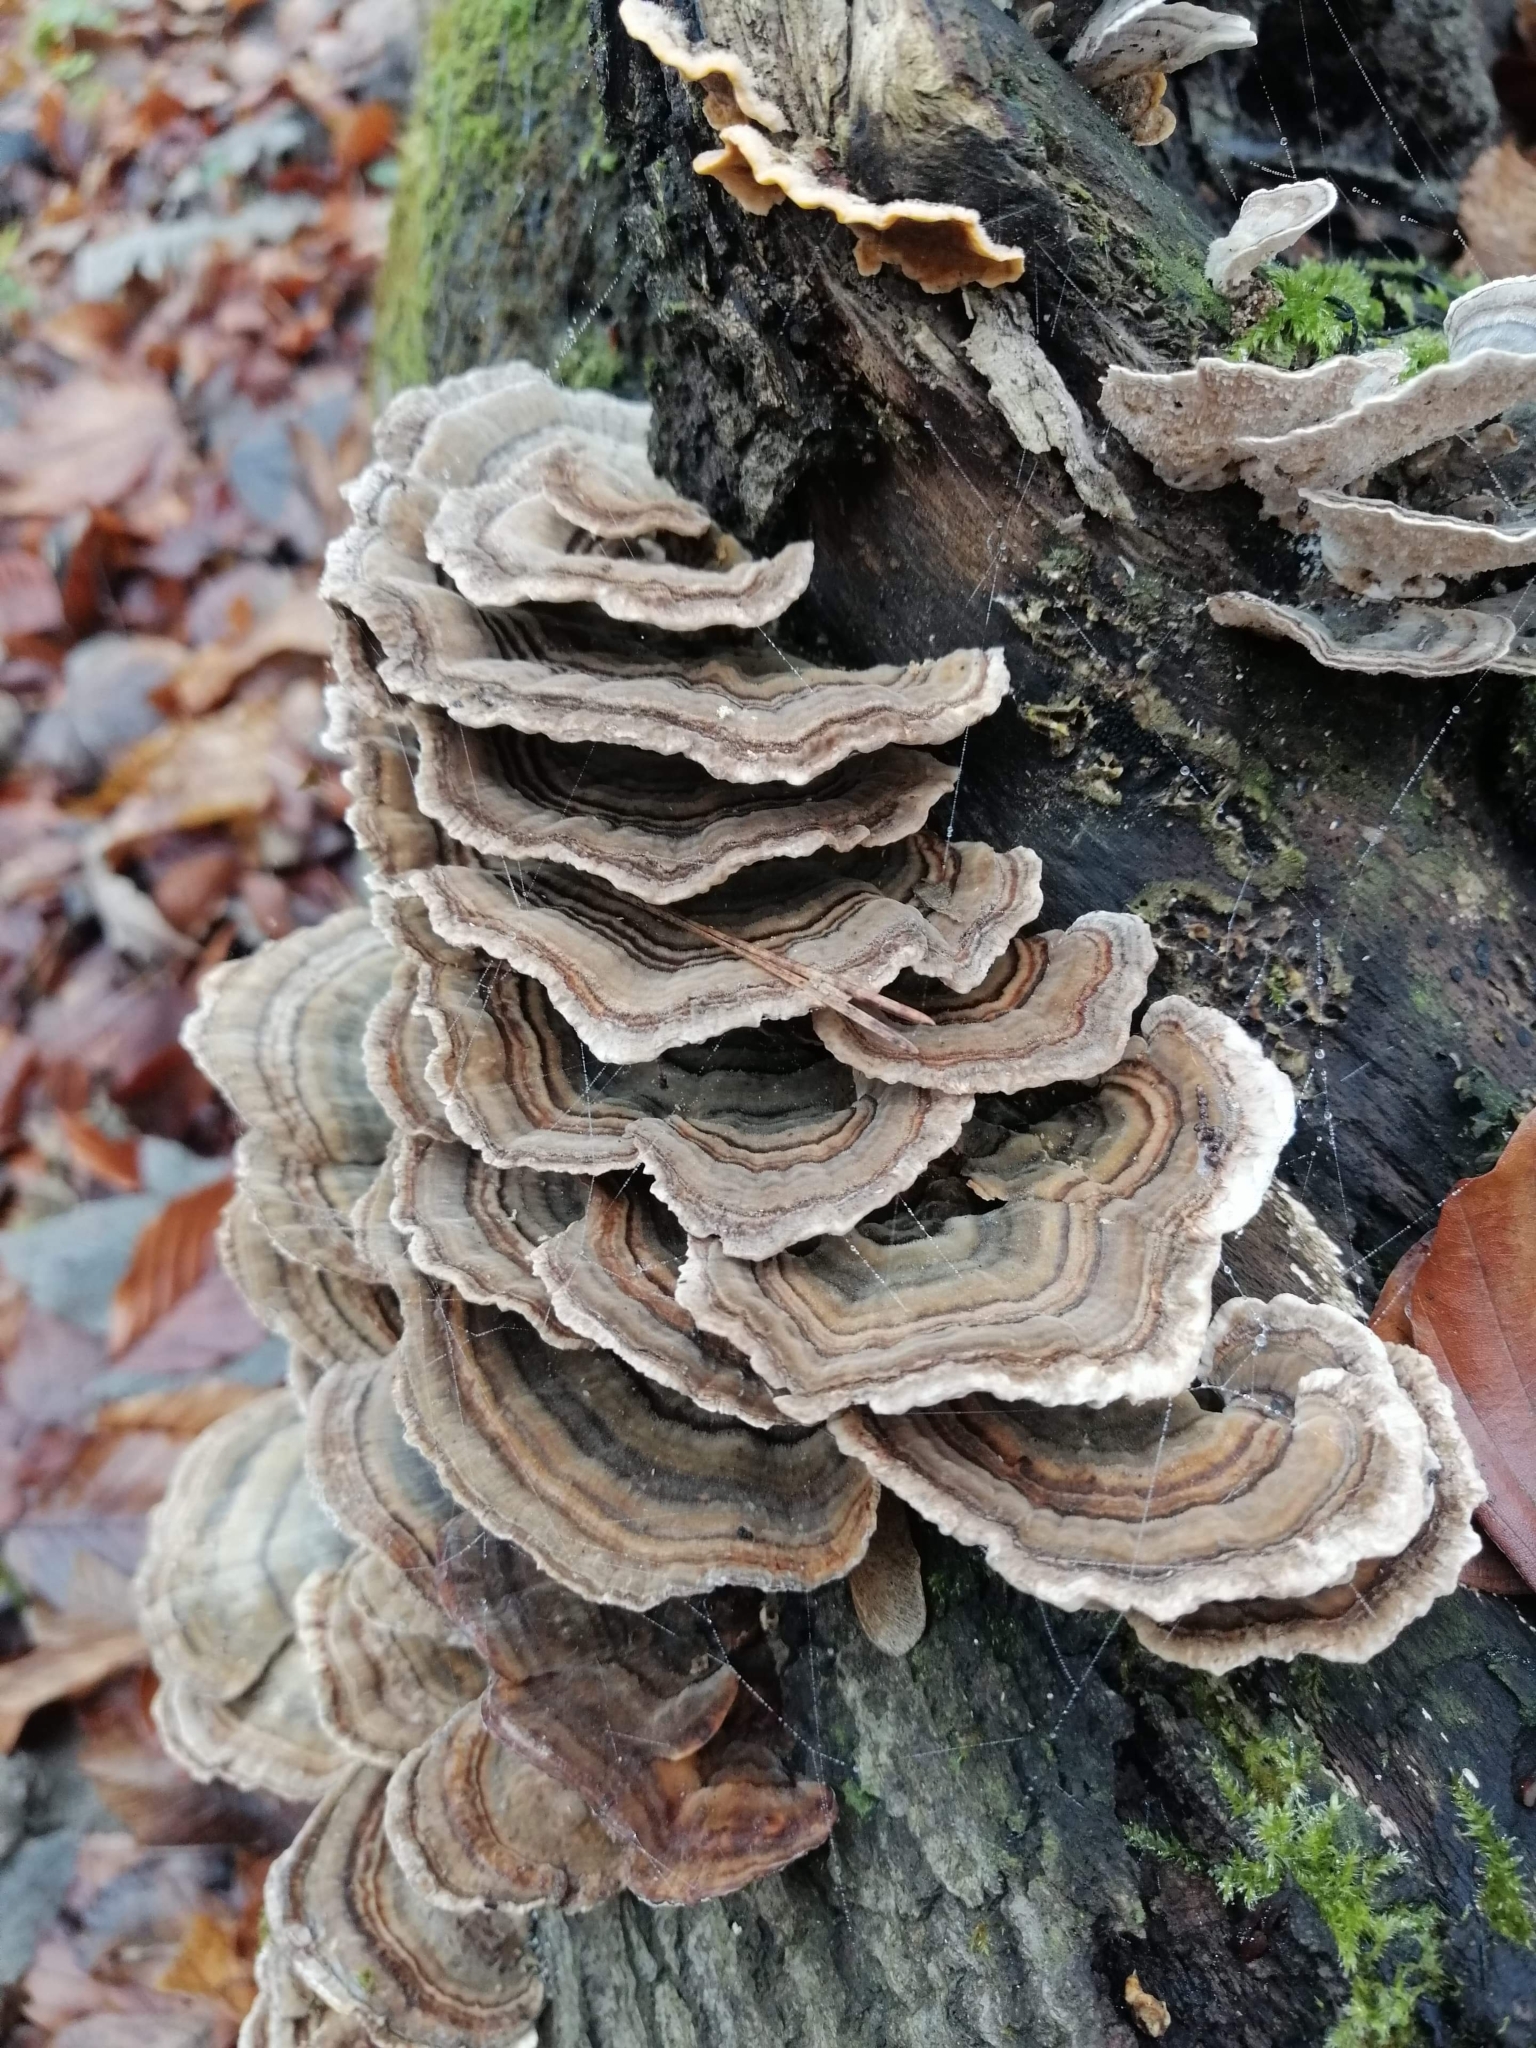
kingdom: Fungi
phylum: Basidiomycota
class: Agaricomycetes
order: Polyporales
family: Polyporaceae
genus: Trametes
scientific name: Trametes versicolor
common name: Turkeytail
